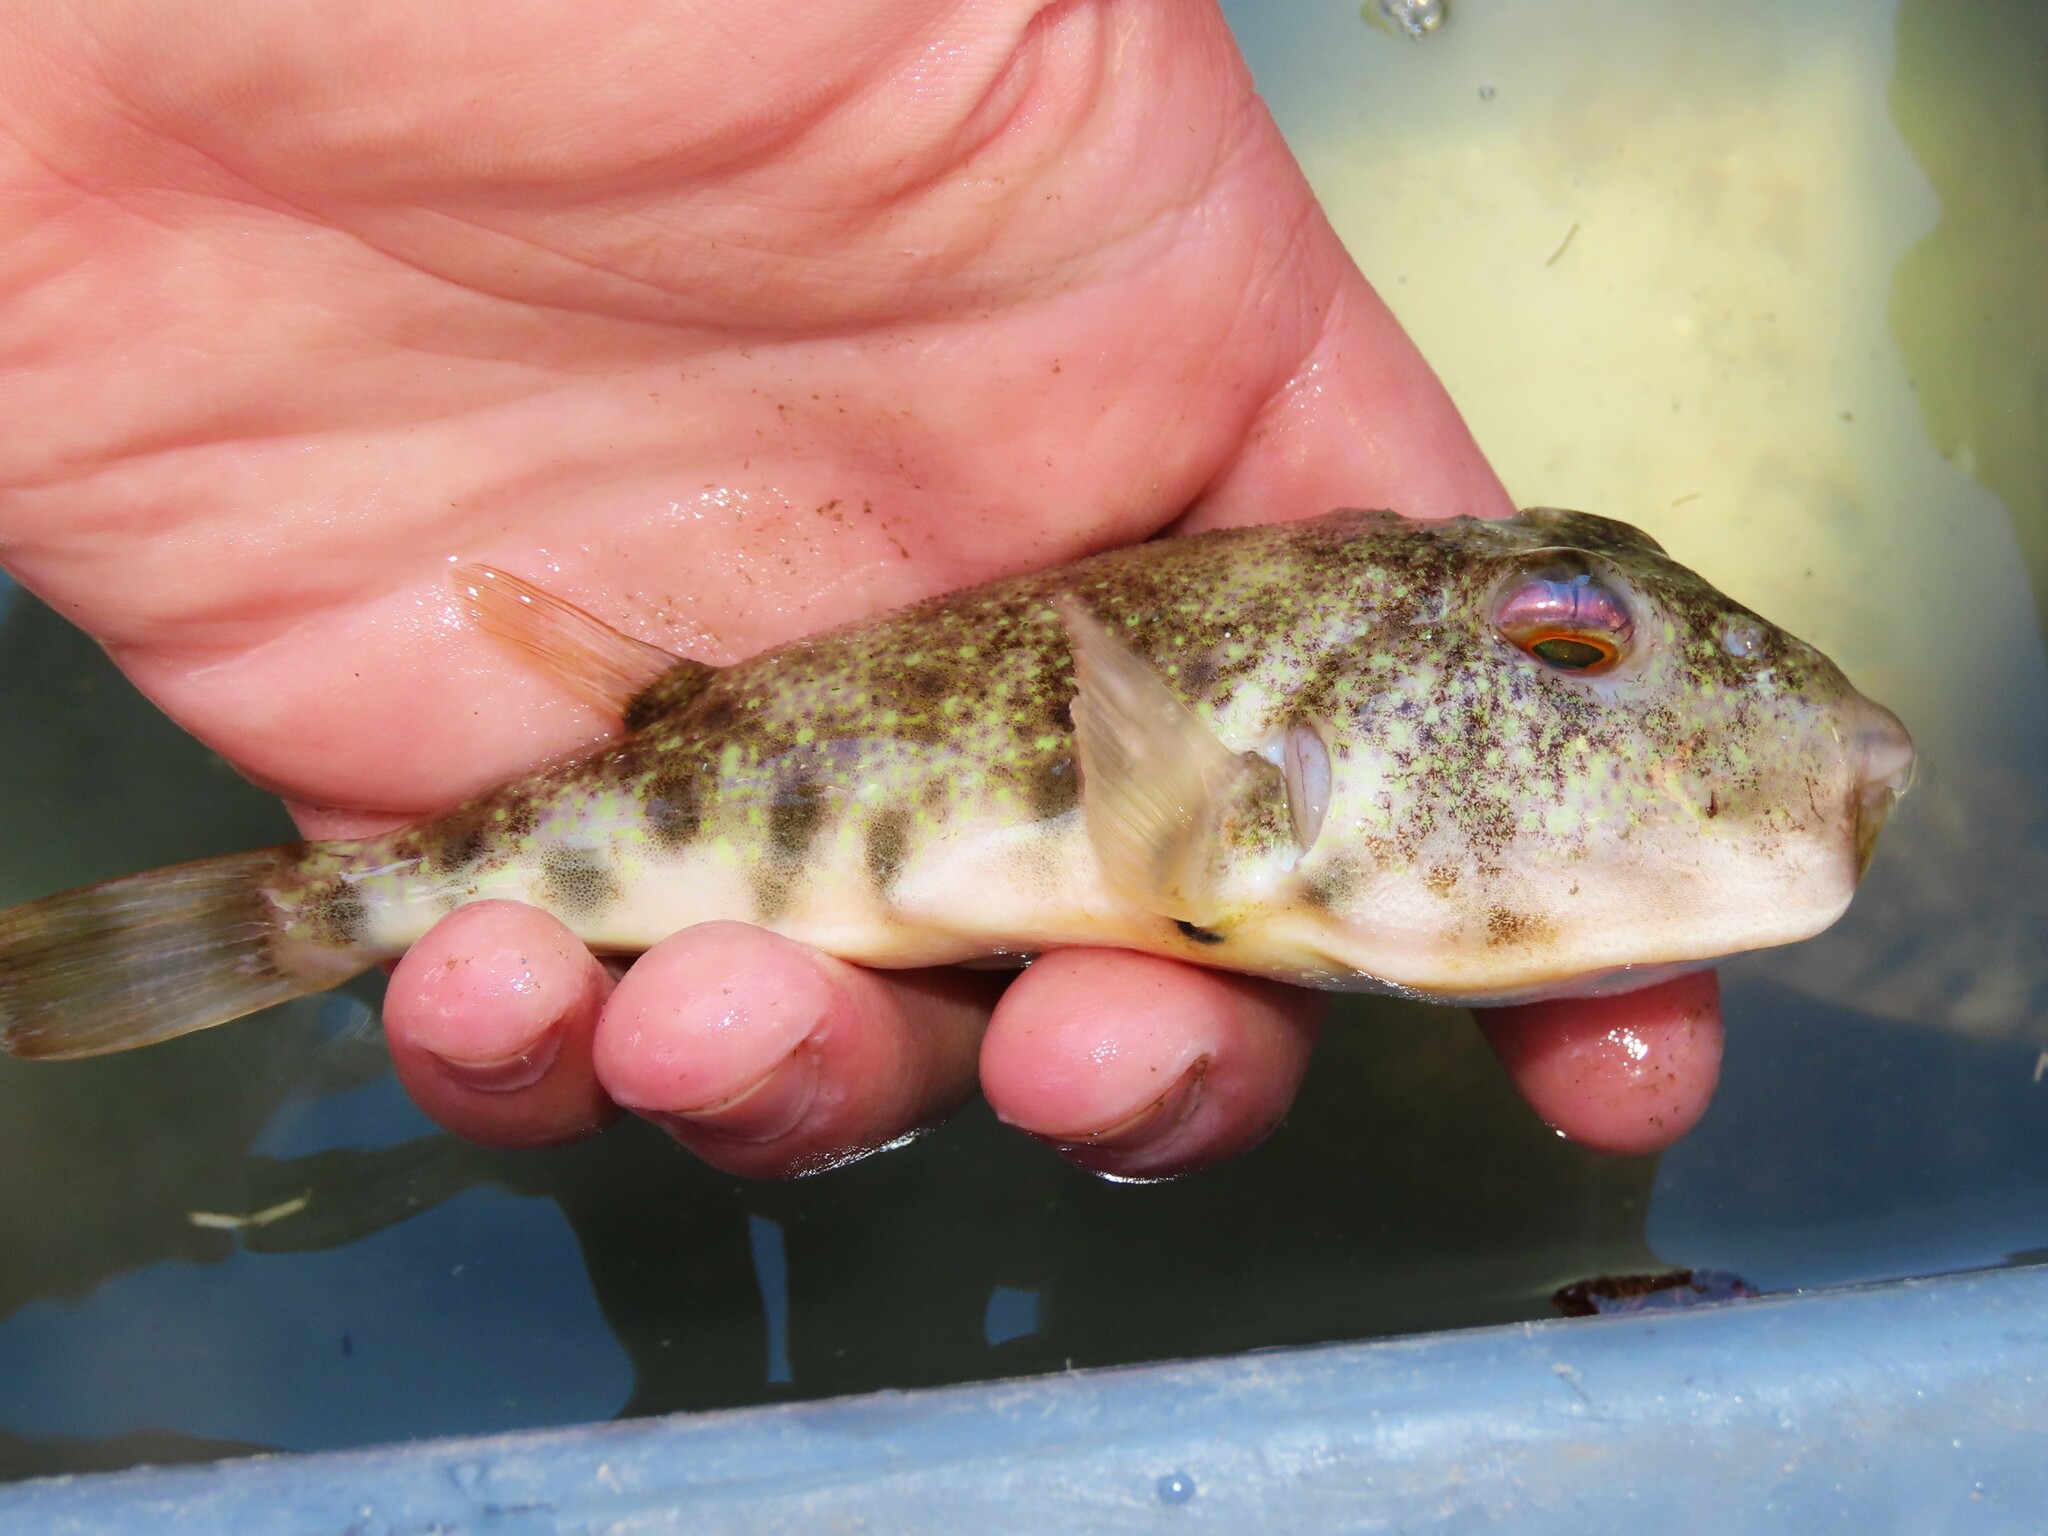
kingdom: Animalia
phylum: Chordata
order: Tetraodontiformes
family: Tetraodontidae
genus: Sphoeroides
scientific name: Sphoeroides maculatus
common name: Northern puffer
